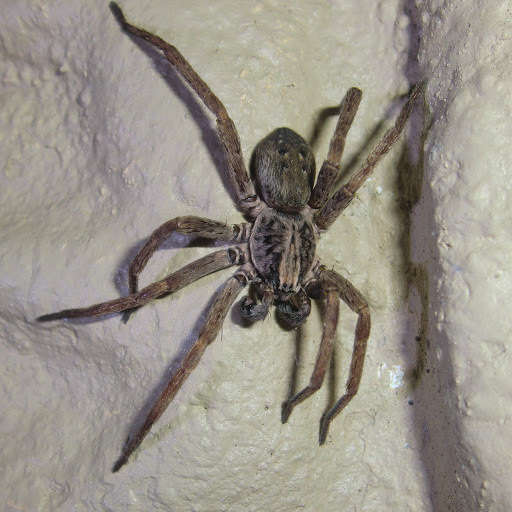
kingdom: Animalia
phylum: Arthropoda
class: Arachnida
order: Araneae
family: Miturgidae
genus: Mituliodon
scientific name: Mituliodon tarantulinus
